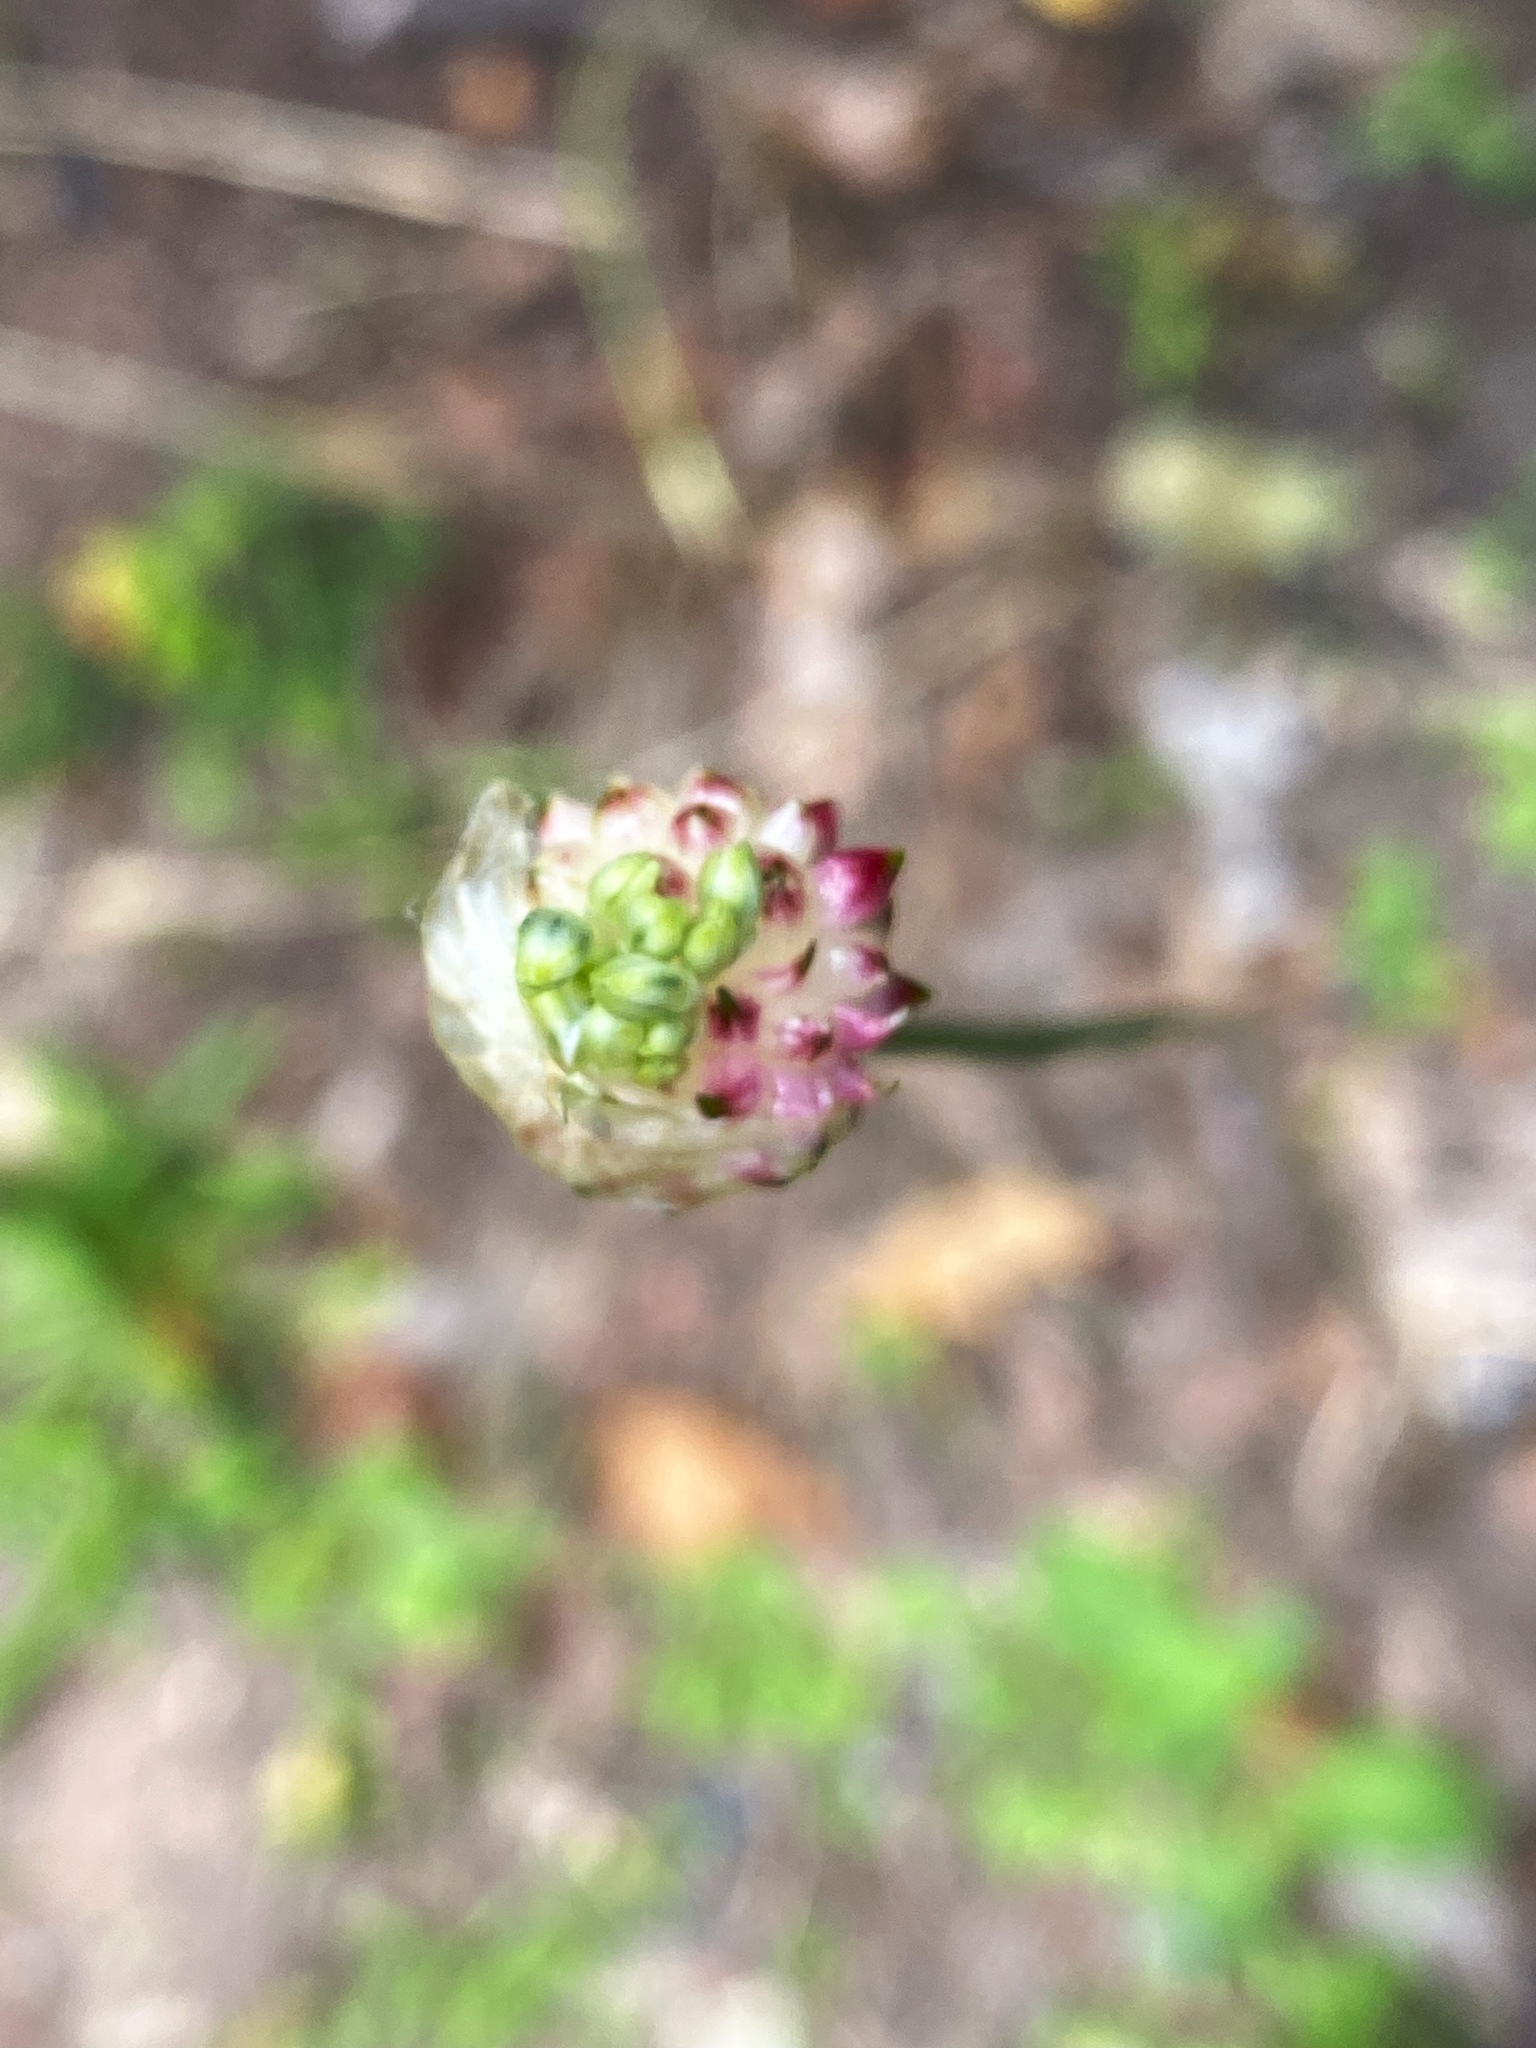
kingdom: Plantae
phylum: Tracheophyta
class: Liliopsida
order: Asparagales
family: Amaryllidaceae
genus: Allium
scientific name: Allium vineale
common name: Crow garlic
